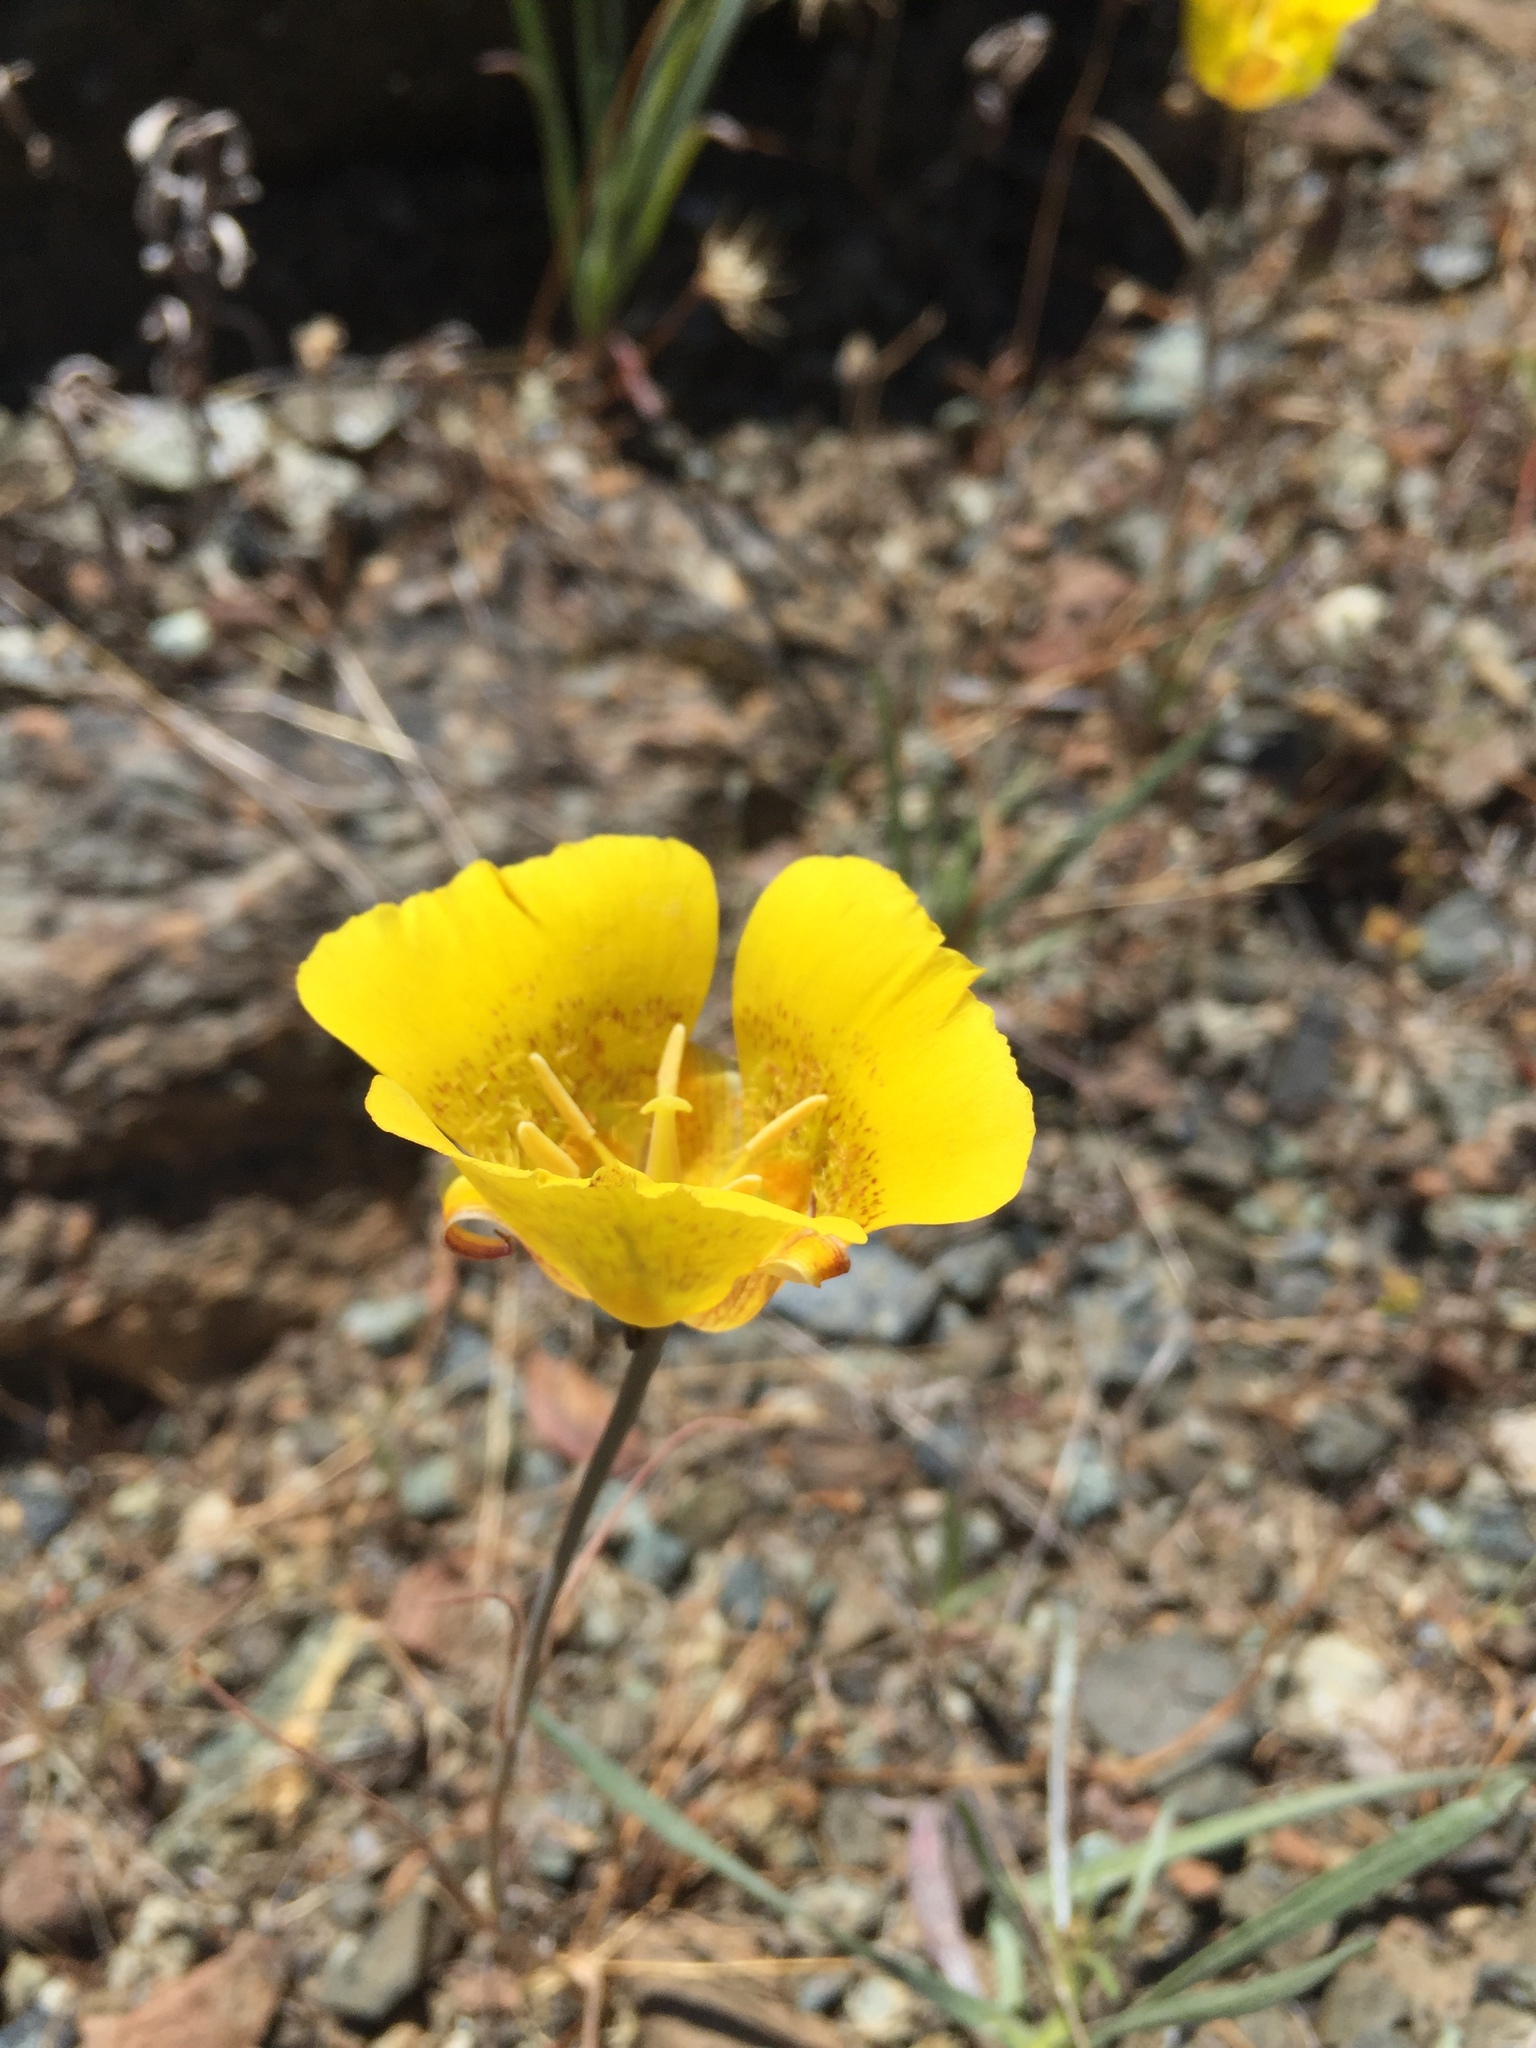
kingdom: Plantae
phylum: Tracheophyta
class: Liliopsida
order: Liliales
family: Liliaceae
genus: Calochortus
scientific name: Calochortus luteus
